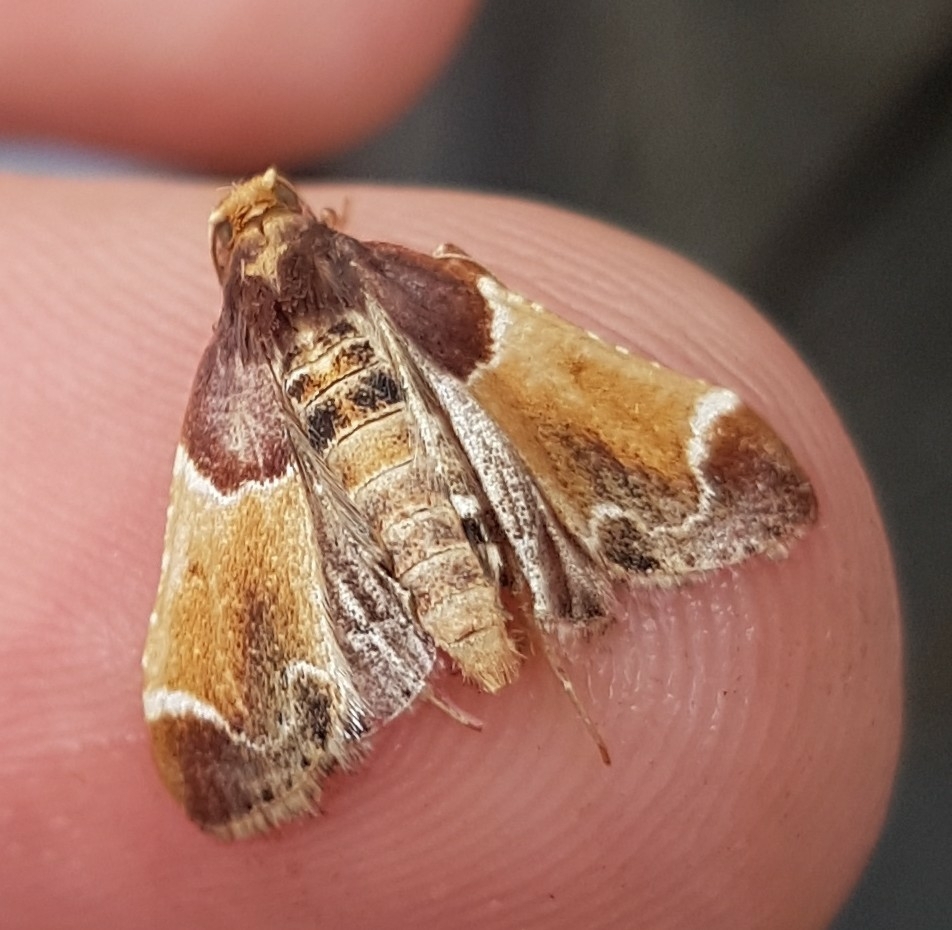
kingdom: Animalia
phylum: Arthropoda
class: Insecta
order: Lepidoptera
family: Pyralidae
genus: Pyralis
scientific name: Pyralis farinalis
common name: Meal moth
